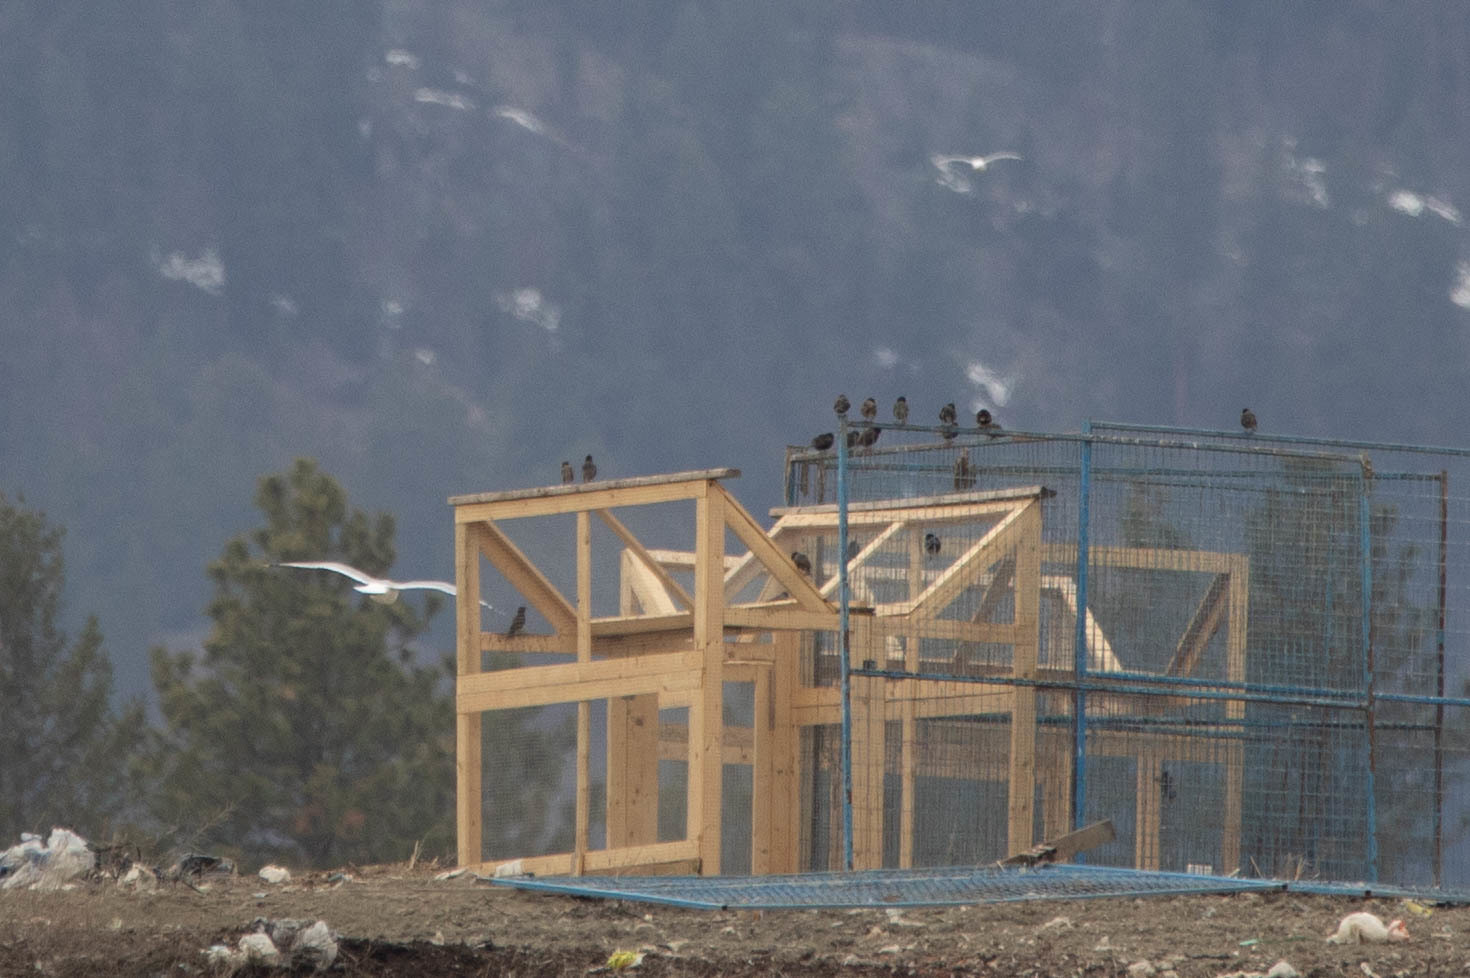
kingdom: Animalia
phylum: Chordata
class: Aves
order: Passeriformes
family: Sturnidae
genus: Sturnus
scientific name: Sturnus vulgaris
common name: Common starling
